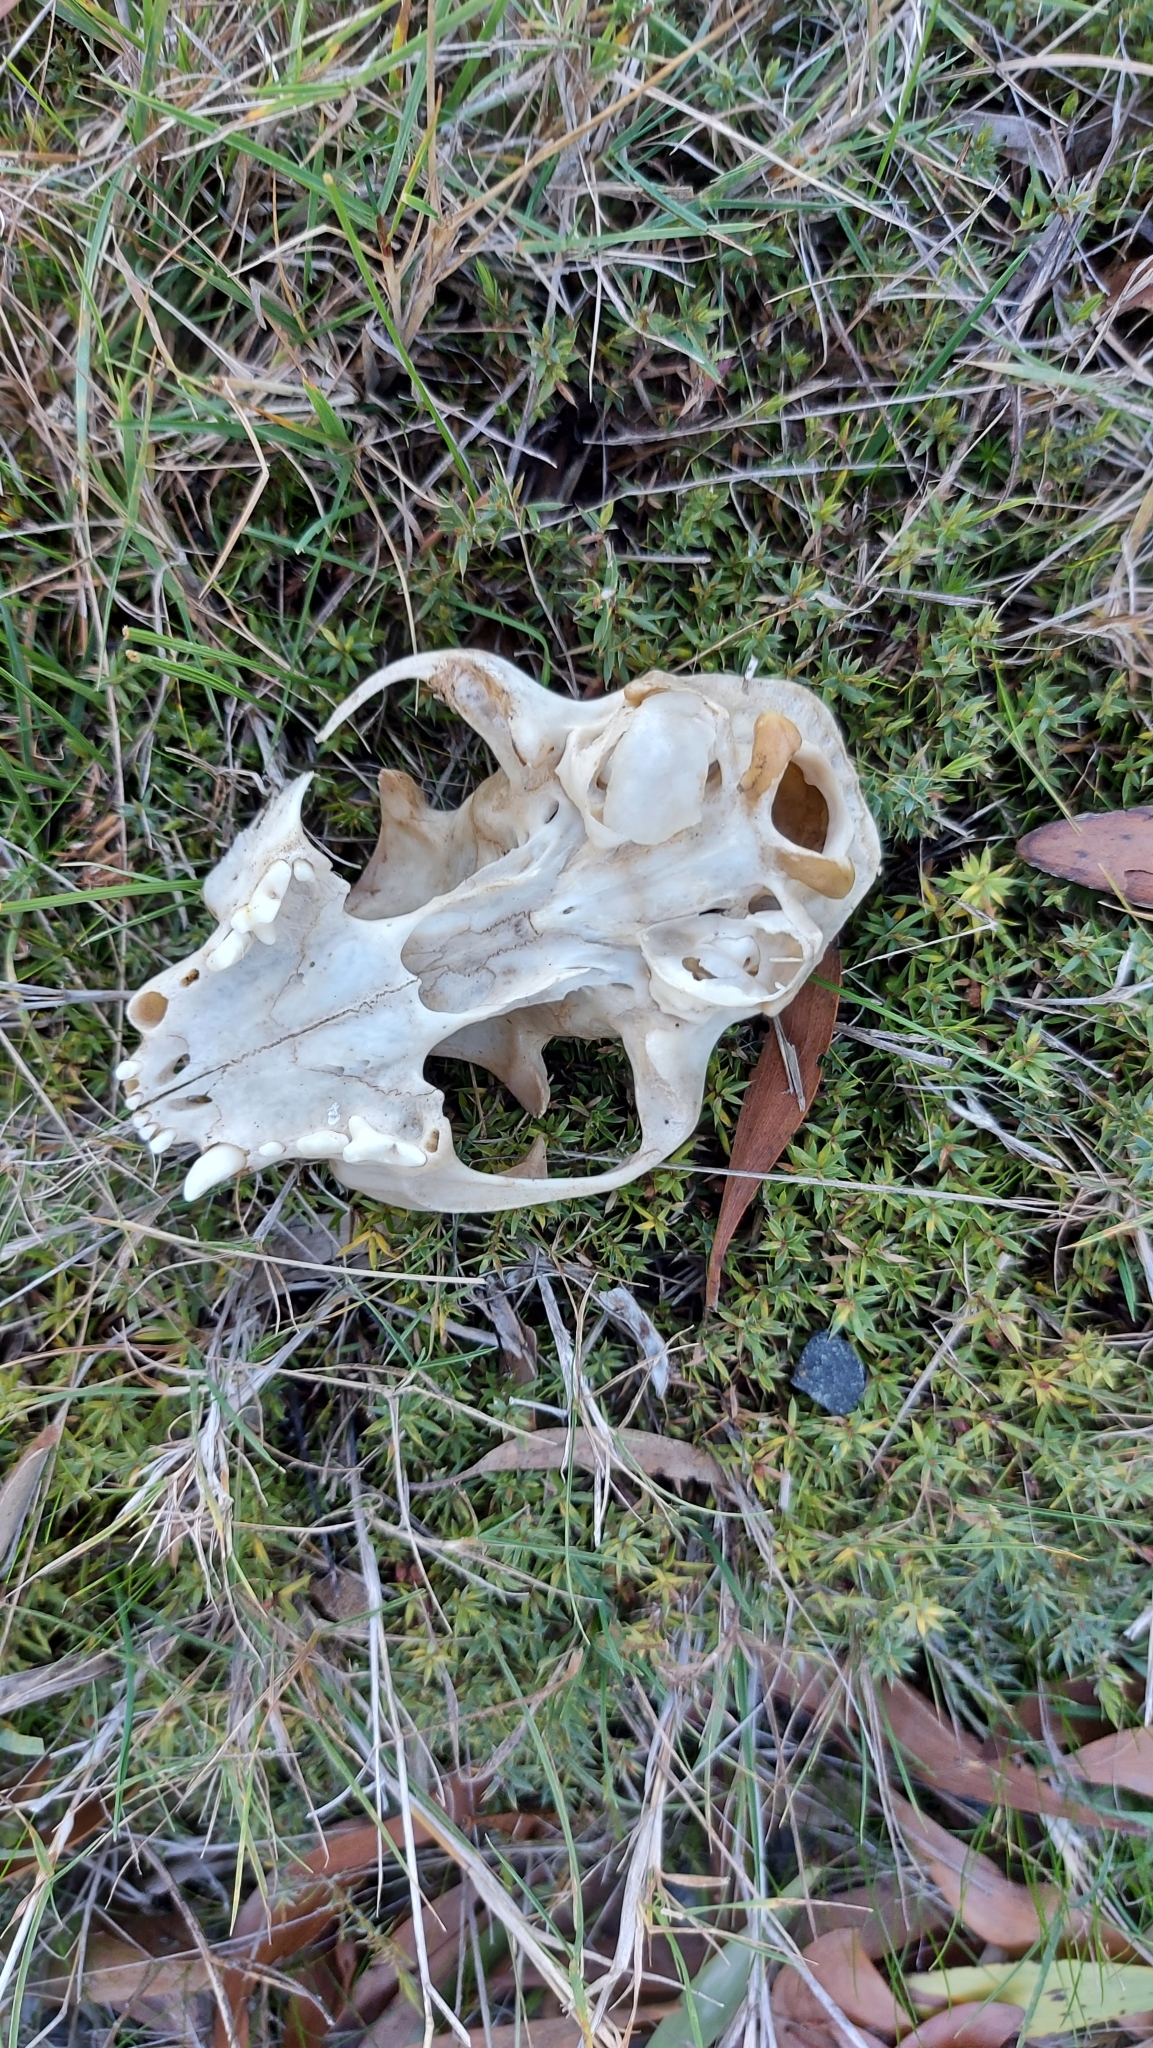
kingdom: Animalia
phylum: Chordata
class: Mammalia
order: Carnivora
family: Felidae
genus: Felis
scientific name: Felis catus
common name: Domestic cat
